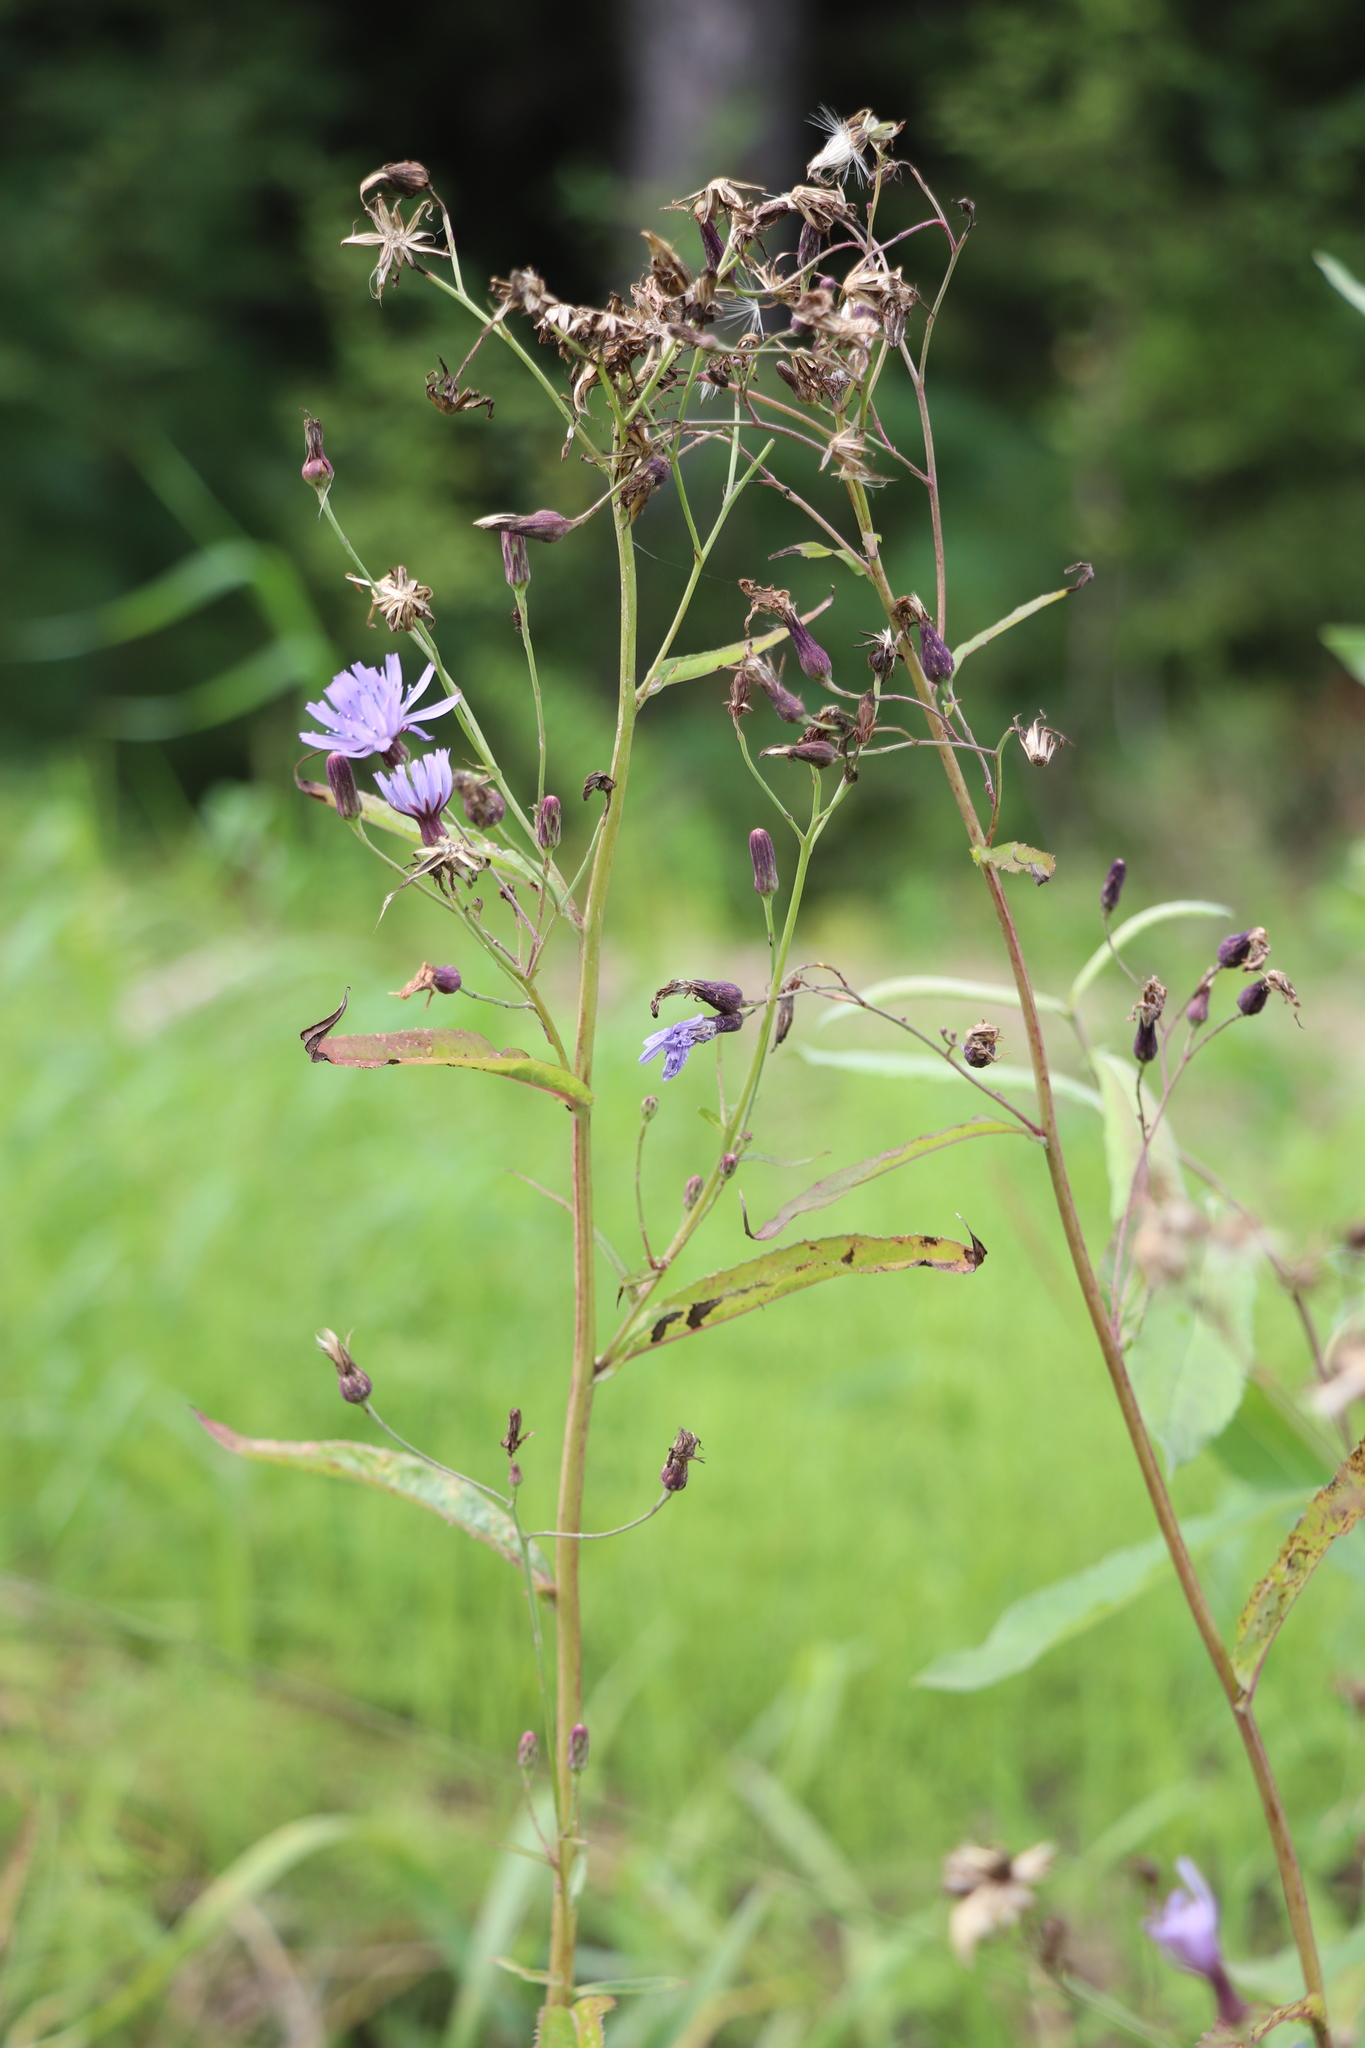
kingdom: Plantae
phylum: Tracheophyta
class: Magnoliopsida
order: Asterales
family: Asteraceae
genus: Lactuca
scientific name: Lactuca sibirica
